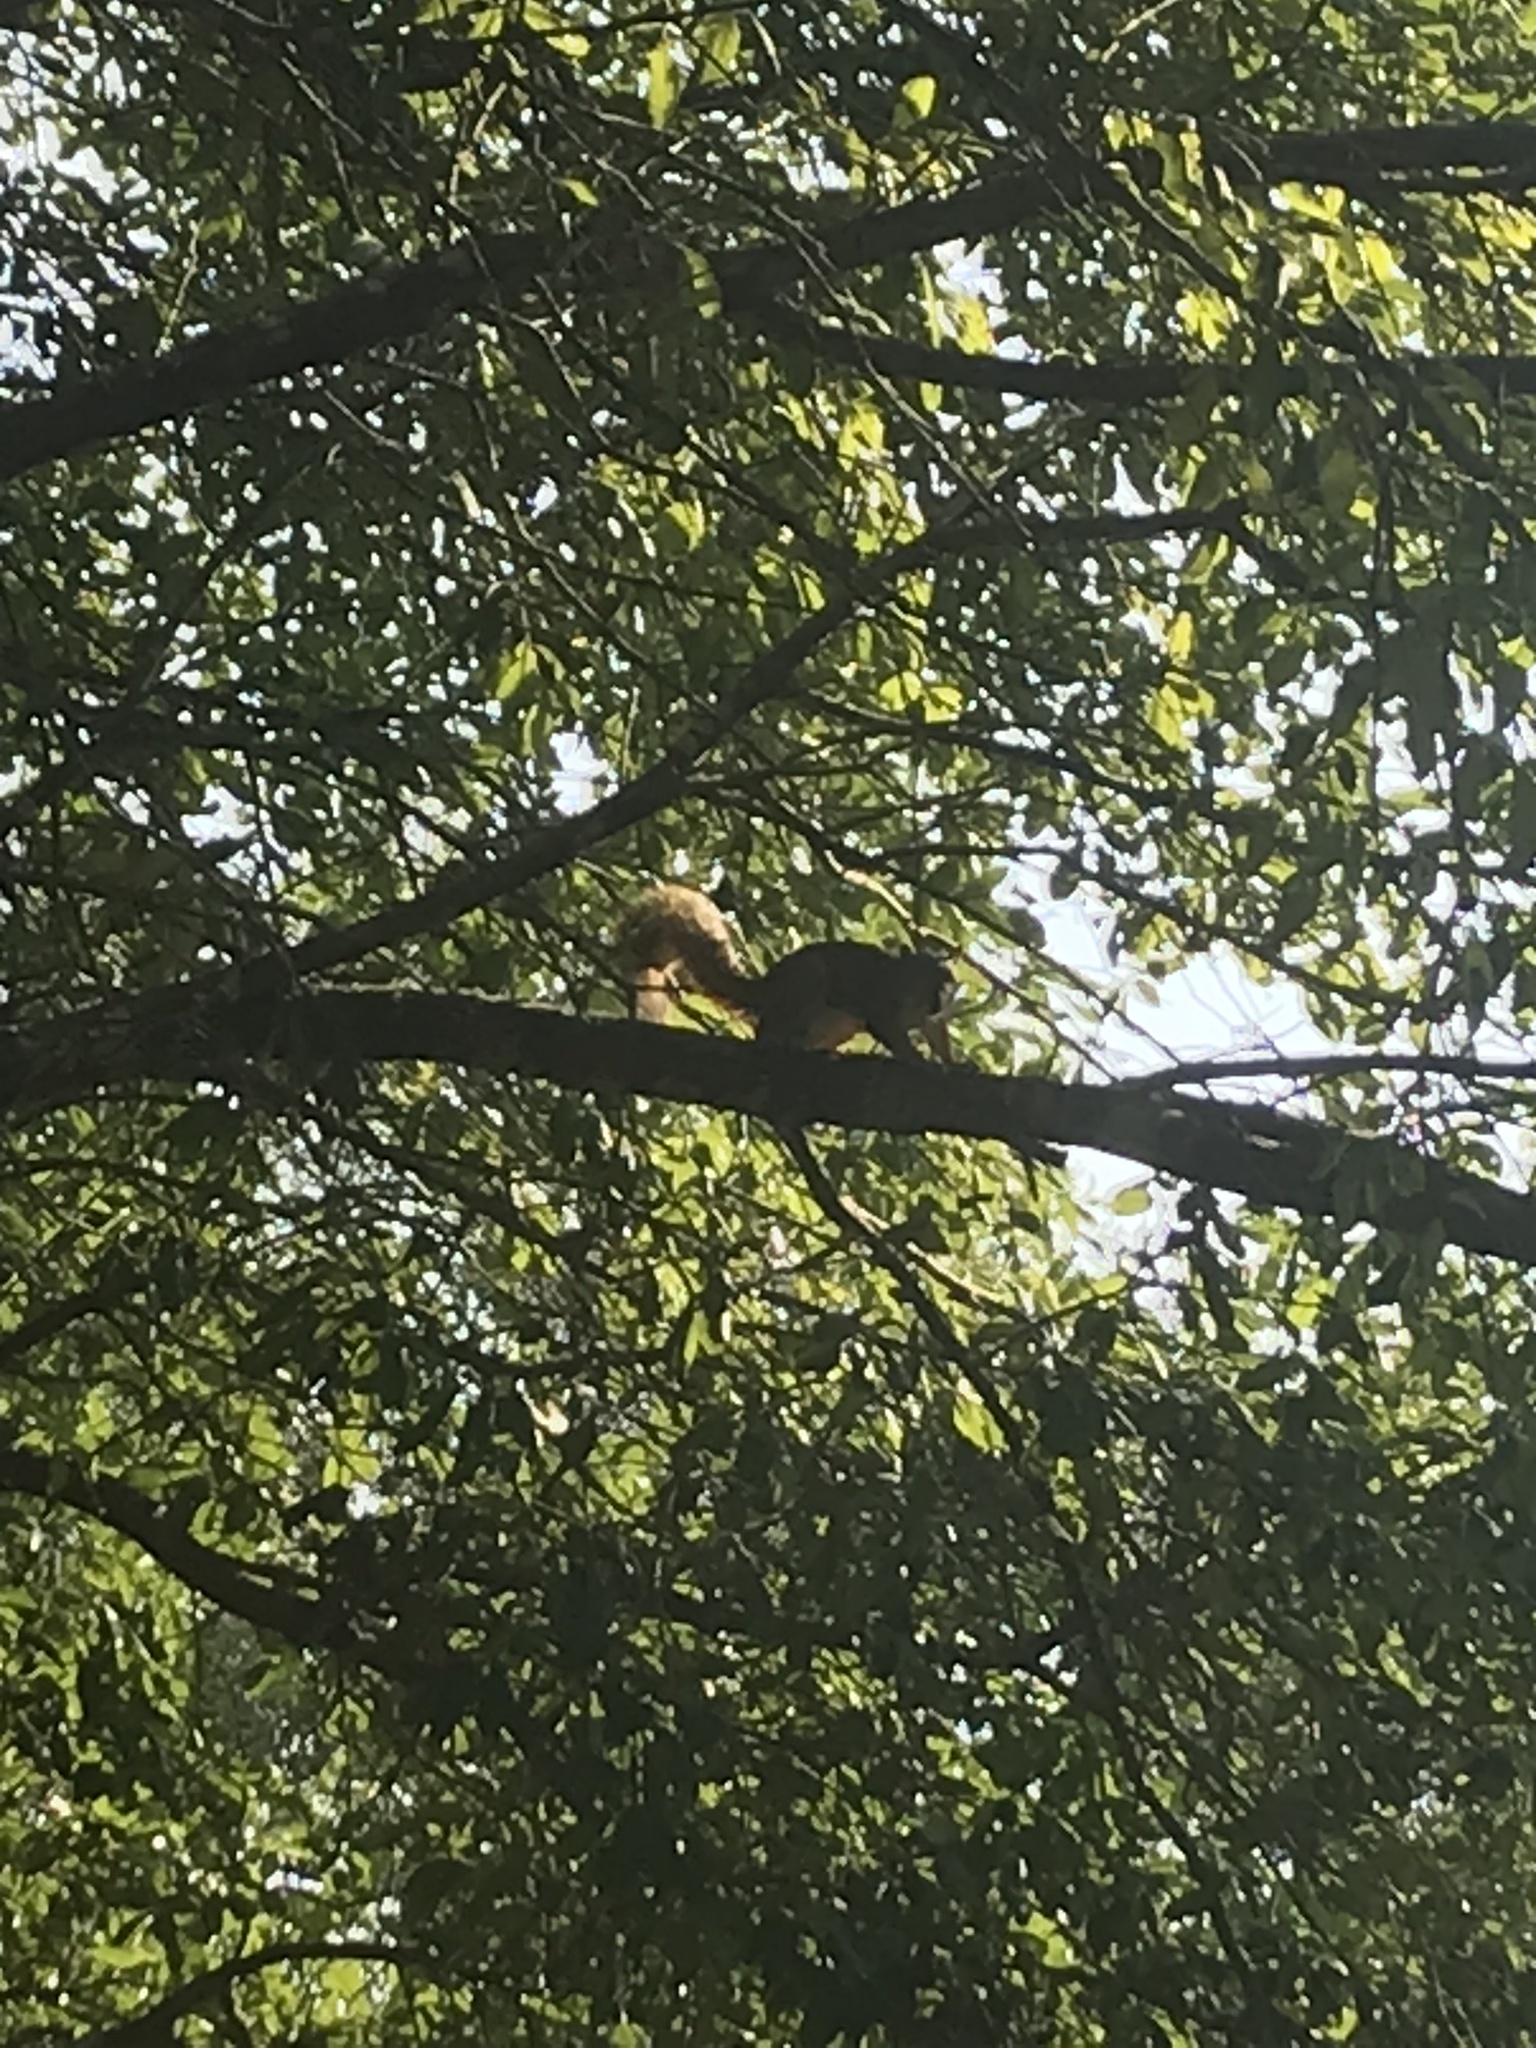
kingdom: Animalia
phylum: Chordata
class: Mammalia
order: Rodentia
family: Sciuridae
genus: Sciurus
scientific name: Sciurus niger
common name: Fox squirrel
